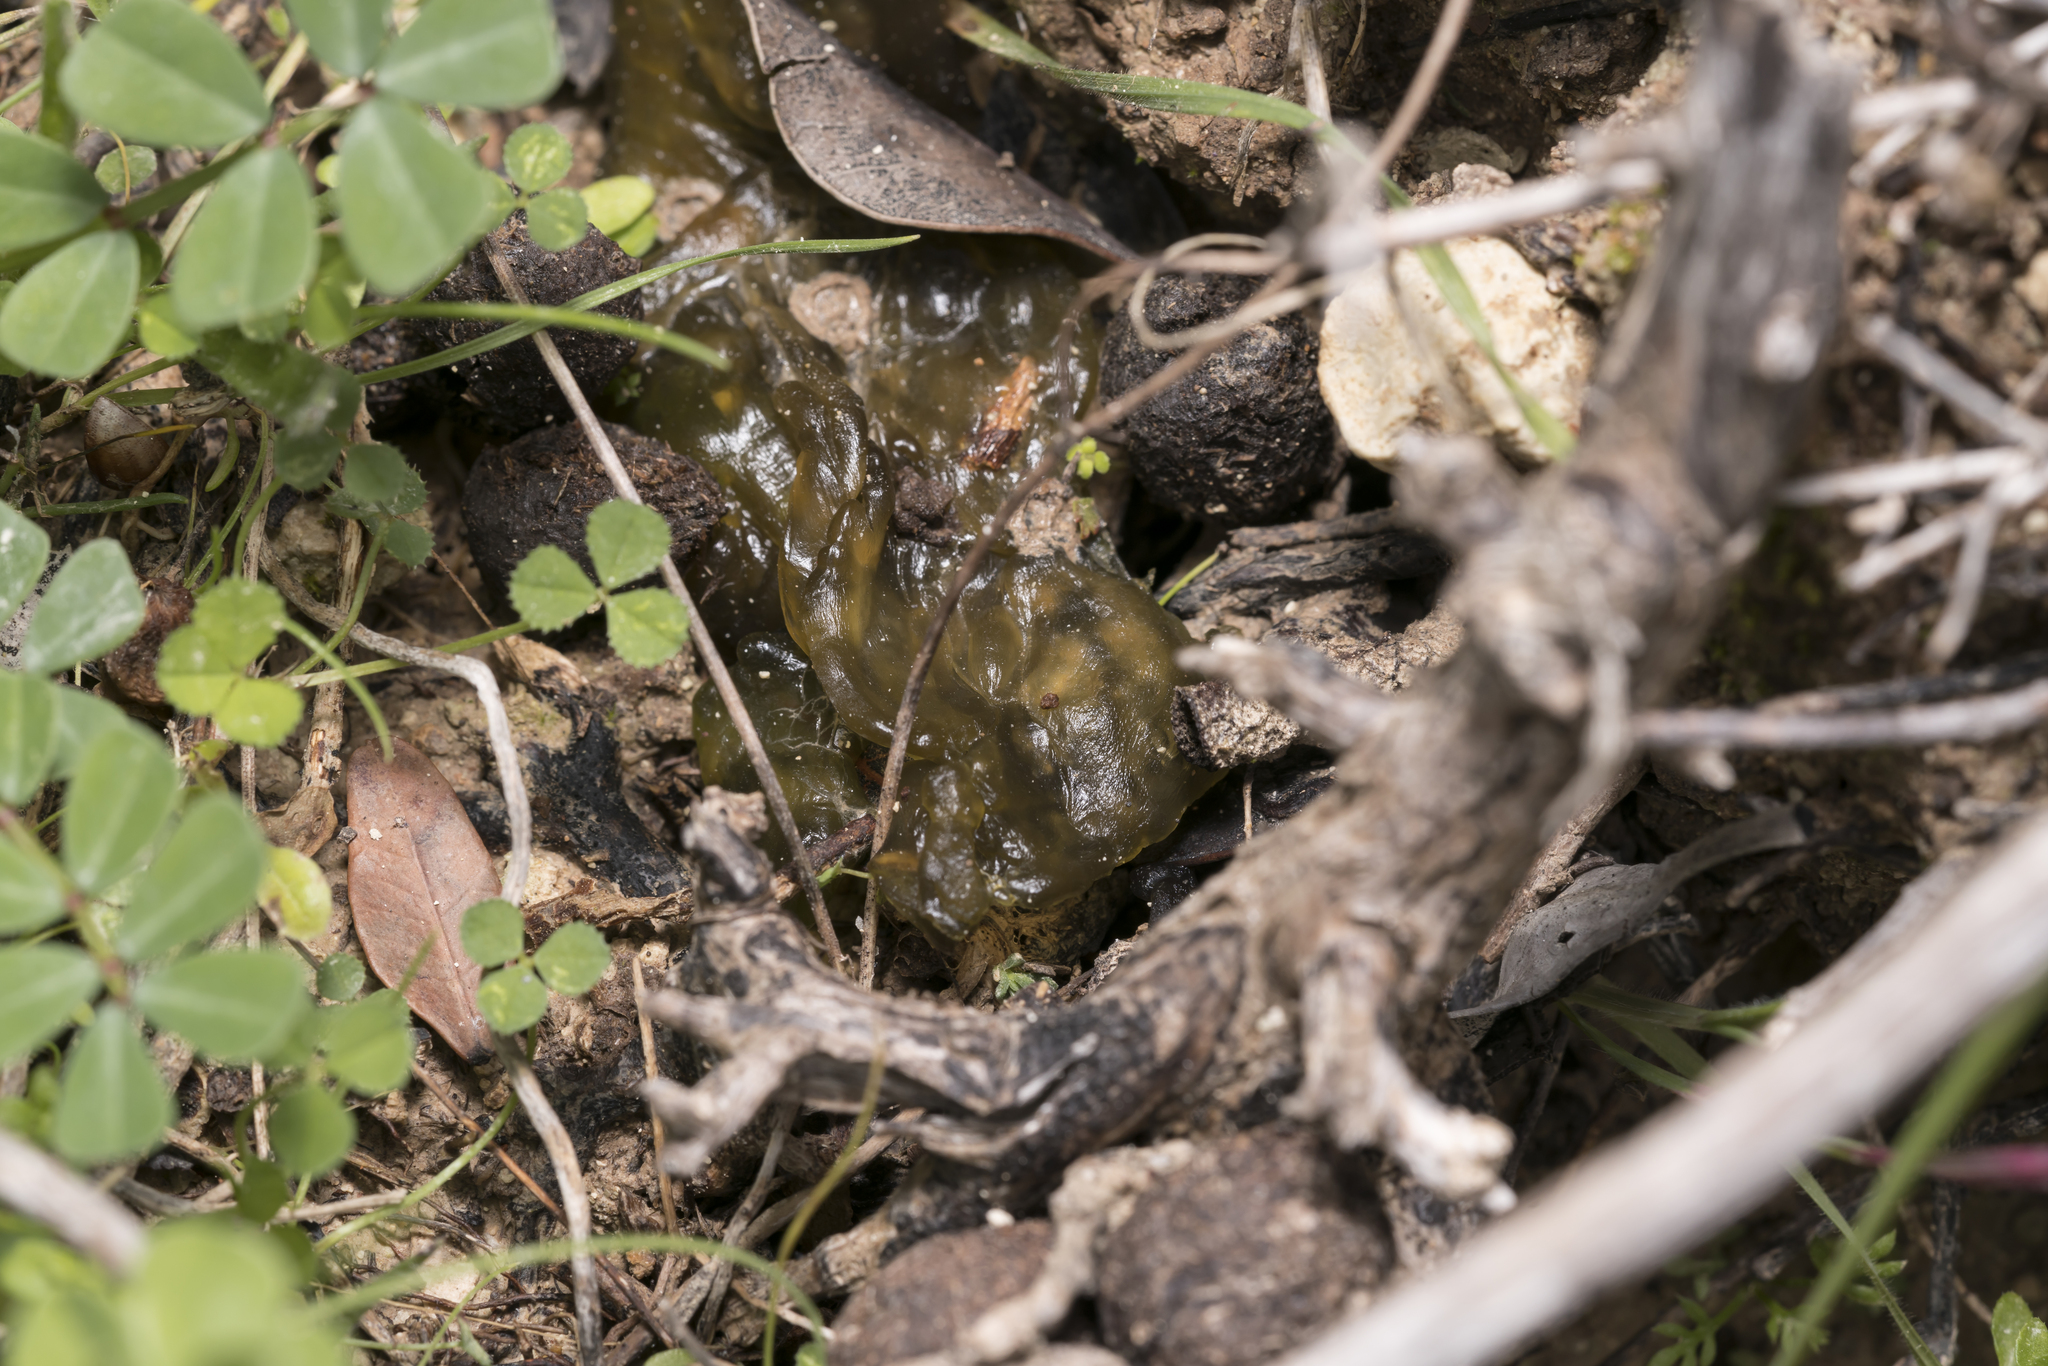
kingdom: Bacteria
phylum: Cyanobacteria
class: Cyanobacteriia
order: Cyanobacteriales
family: Nostocaceae
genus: Nostoc
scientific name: Nostoc commune
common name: Star jelly
